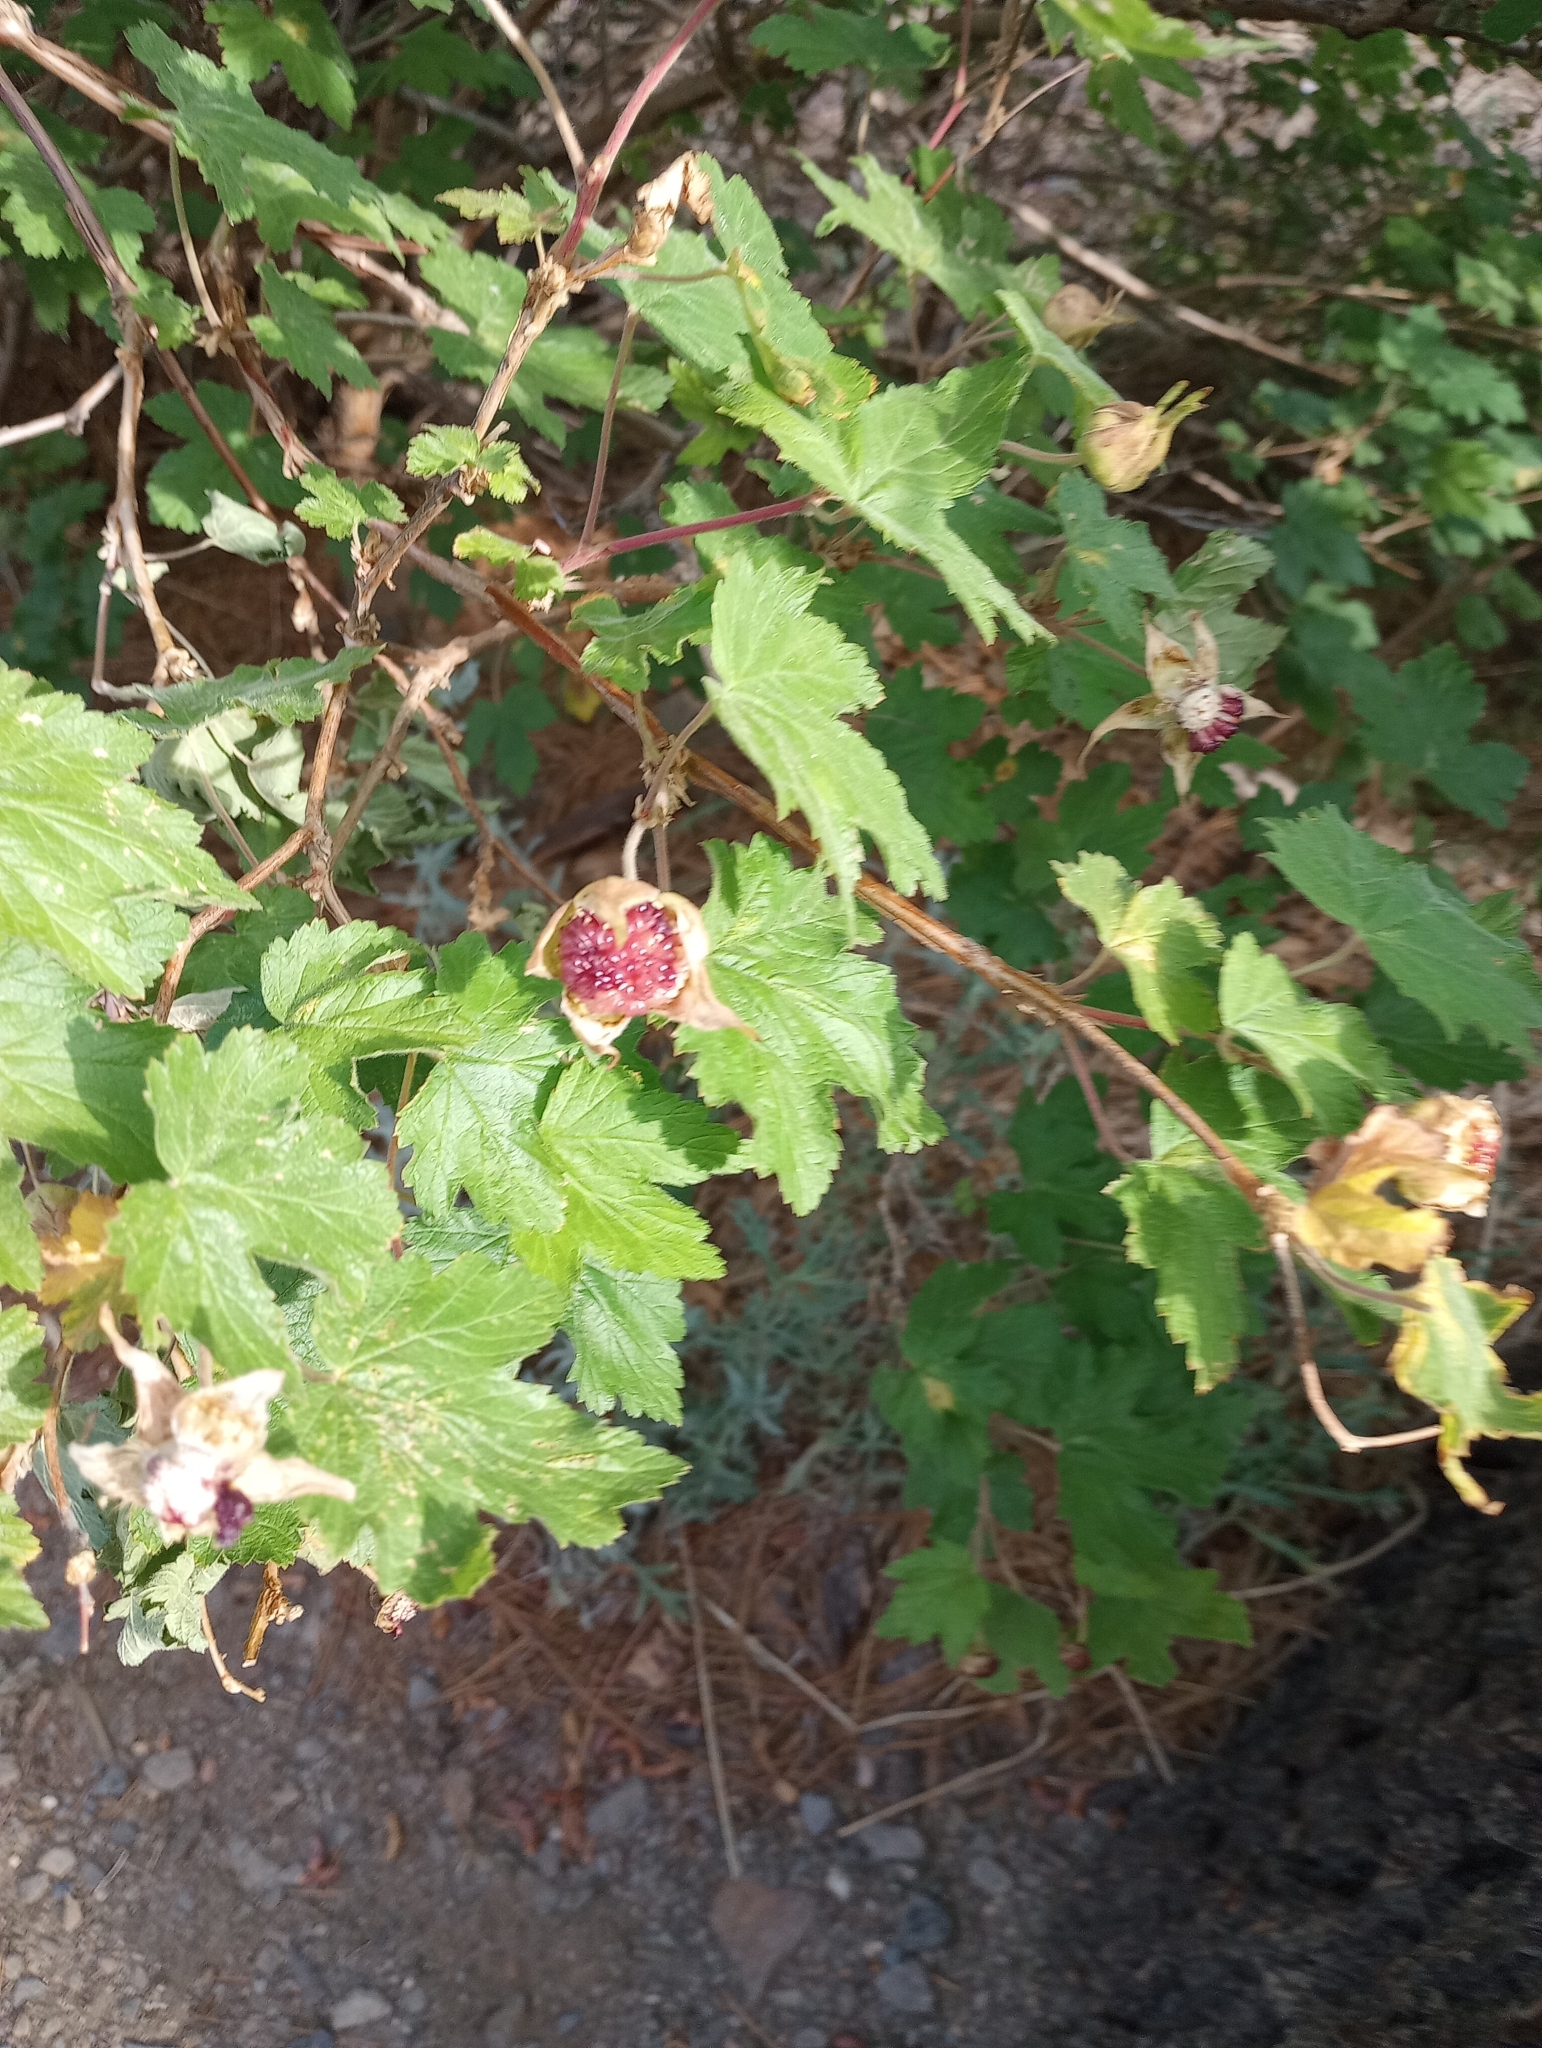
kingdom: Plantae
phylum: Tracheophyta
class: Magnoliopsida
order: Rosales
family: Rosaceae
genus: Rubus
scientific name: Rubus neomexicanus
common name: New mexico raspberry
